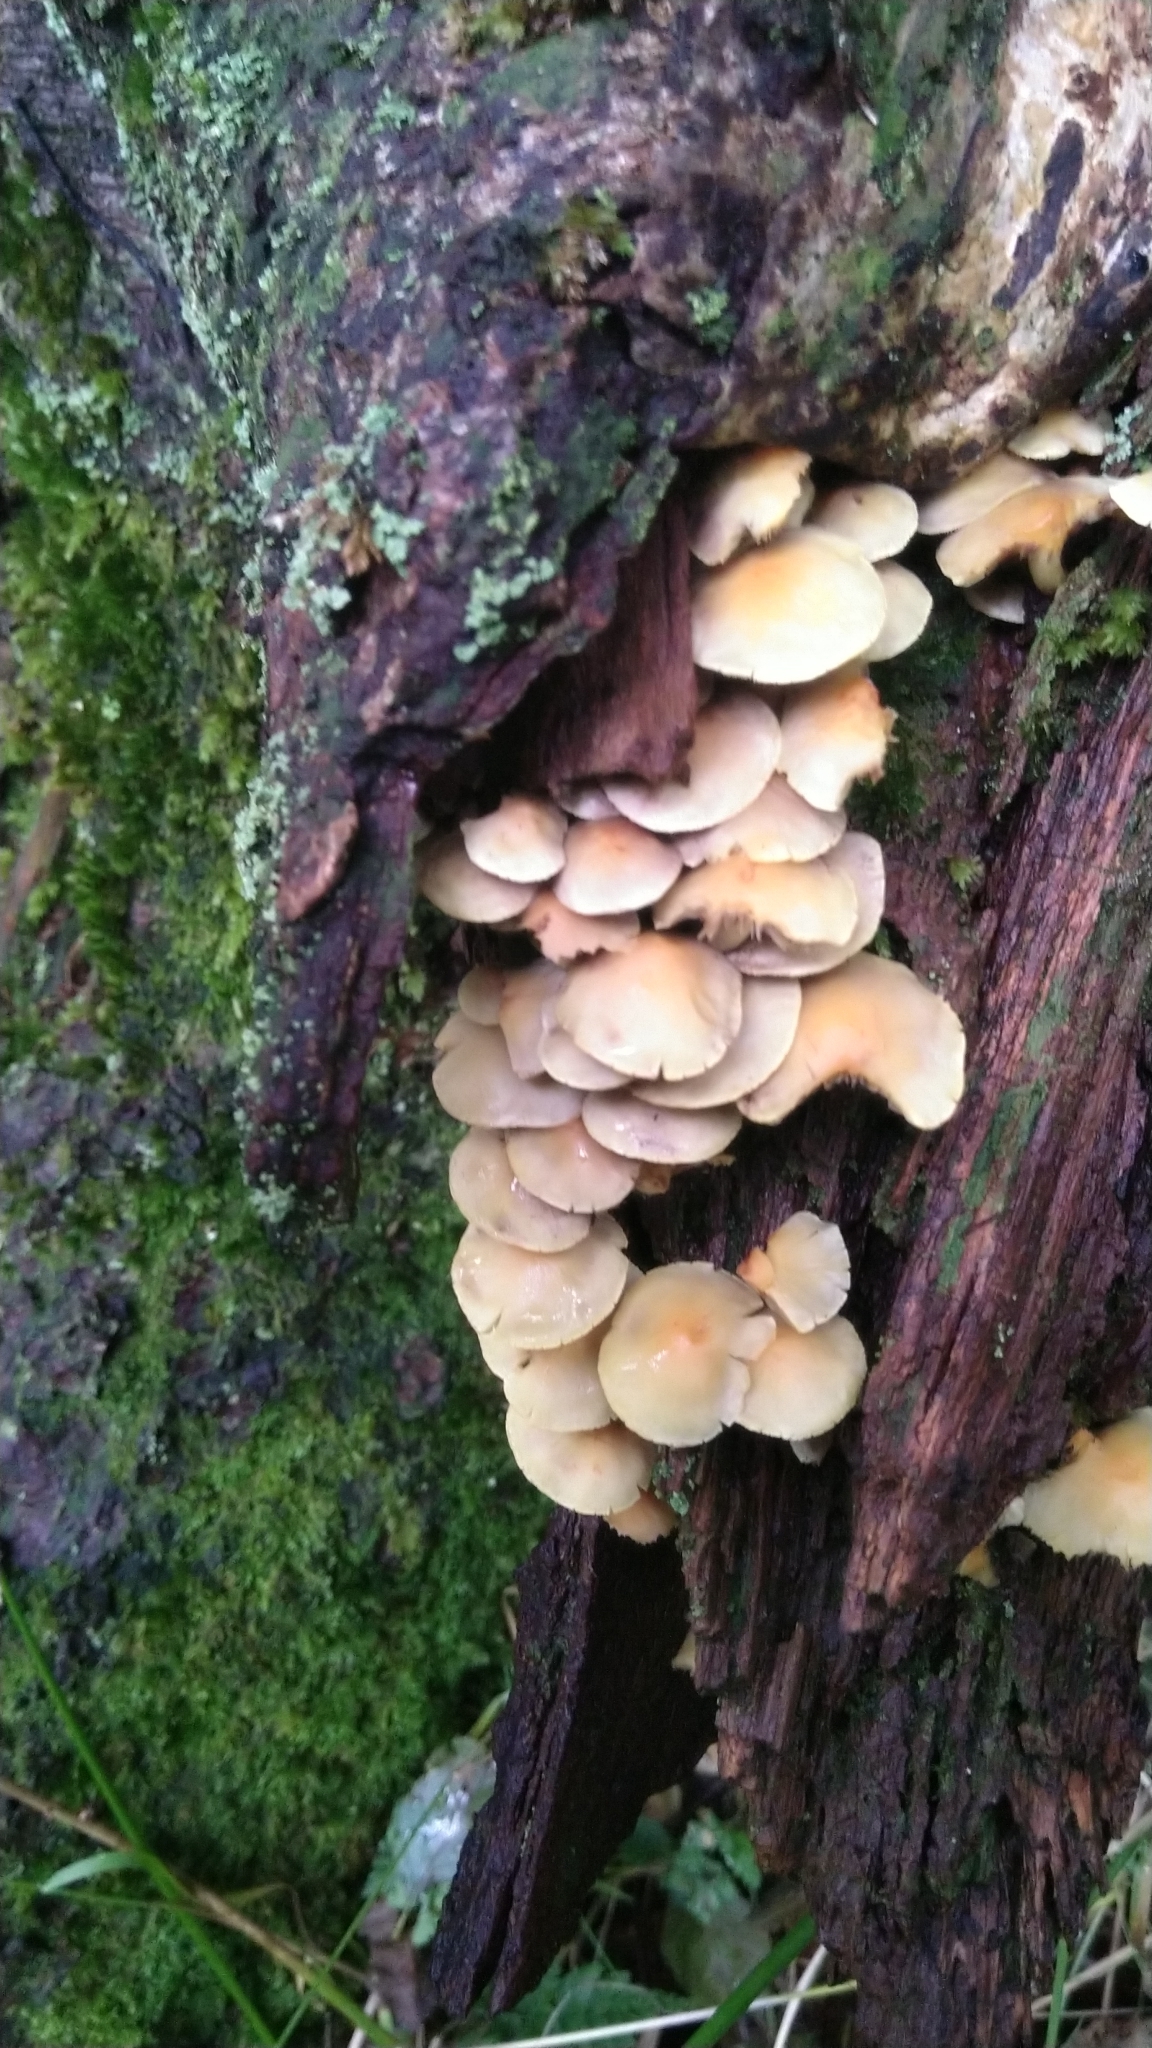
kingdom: Fungi
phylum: Basidiomycota
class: Agaricomycetes
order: Agaricales
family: Strophariaceae
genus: Hypholoma
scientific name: Hypholoma fasciculare
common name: Sulphur tuft
